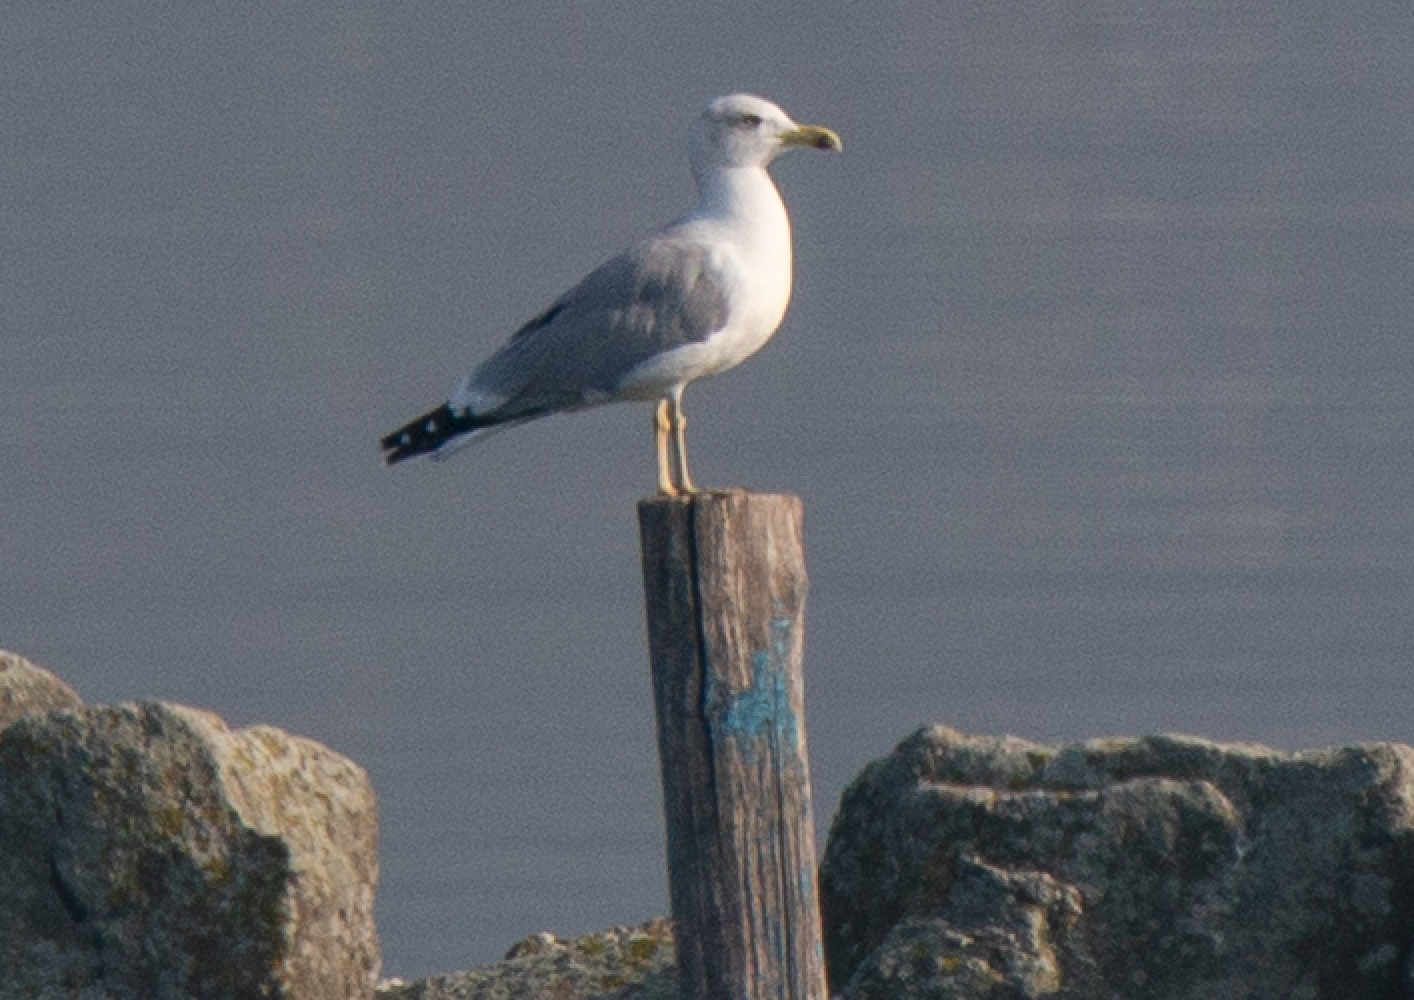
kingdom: Animalia
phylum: Chordata
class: Aves
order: Charadriiformes
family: Laridae
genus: Larus
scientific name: Larus michahellis
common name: Yellow-legged gull
